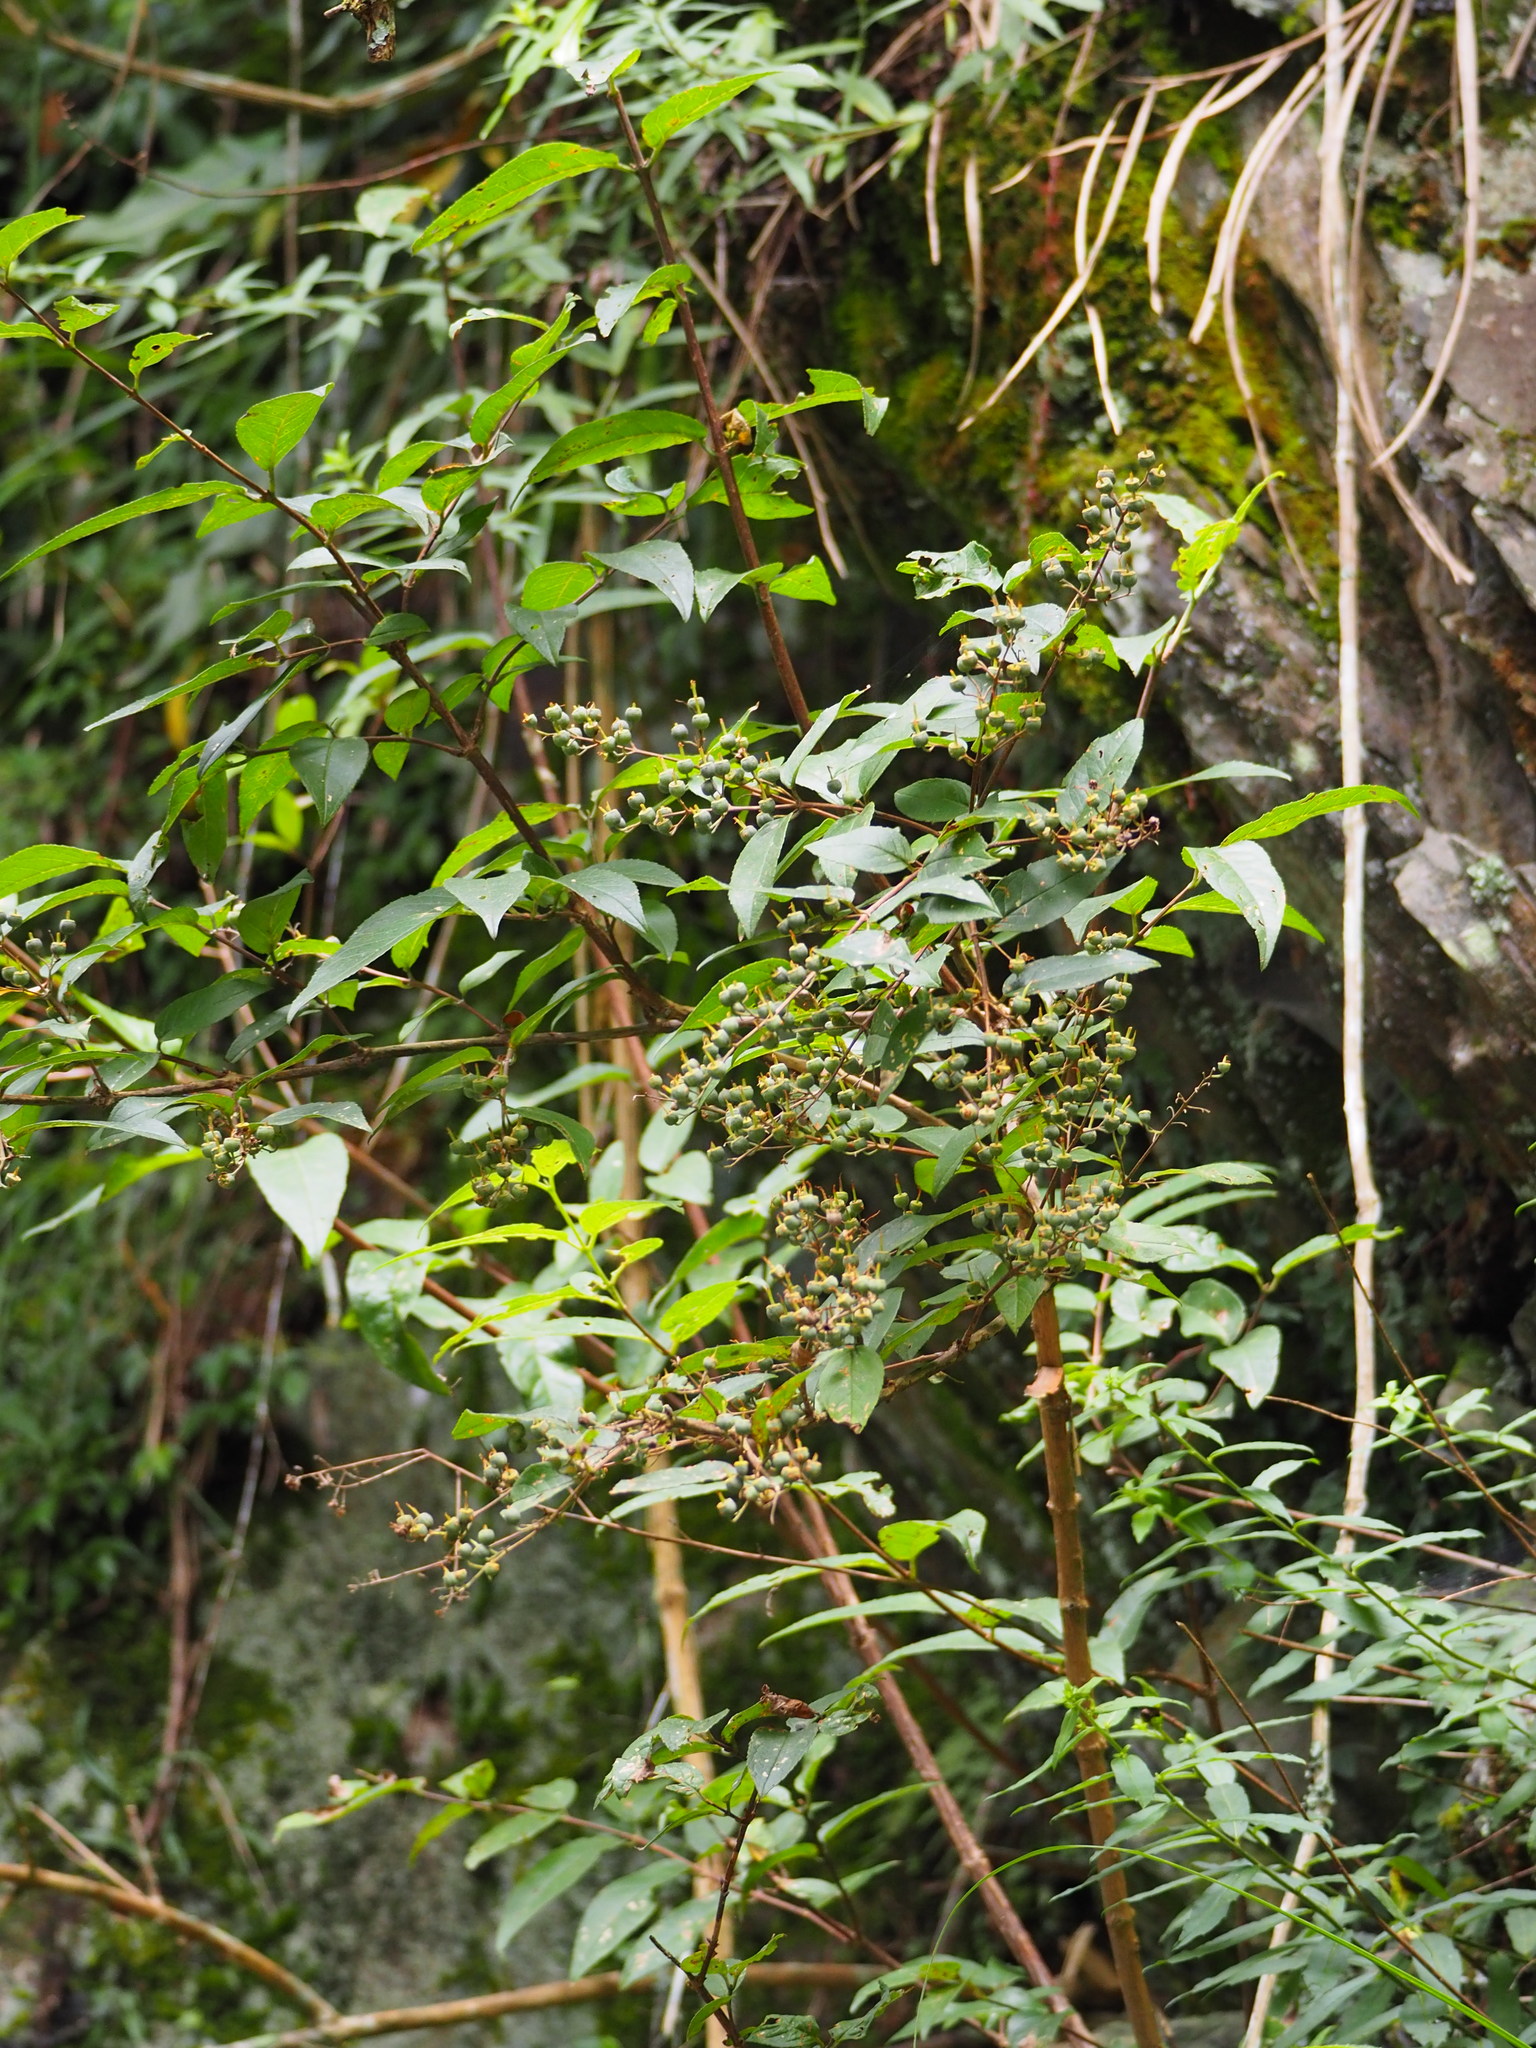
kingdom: Plantae
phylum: Tracheophyta
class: Magnoliopsida
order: Cornales
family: Hydrangeaceae
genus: Deutzia
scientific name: Deutzia pulchra
